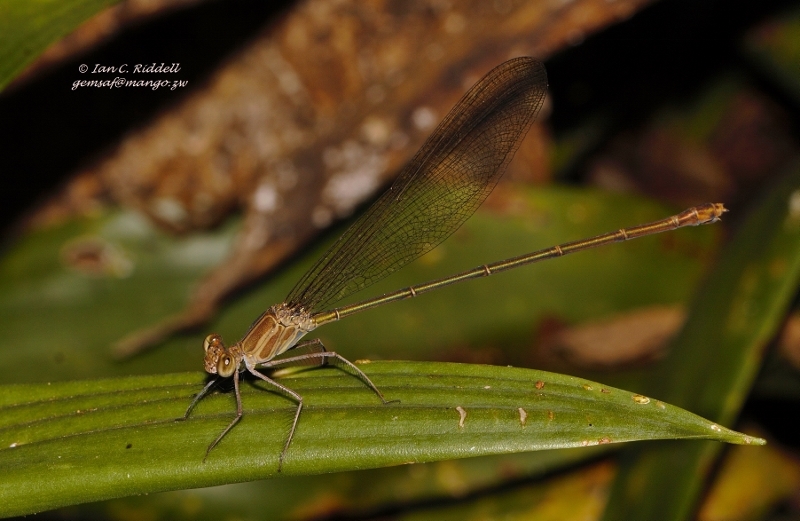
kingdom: Animalia
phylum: Arthropoda
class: Insecta
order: Odonata
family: Calopterygidae
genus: Phaon
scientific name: Phaon iridipennis
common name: Glistening demoiselle
